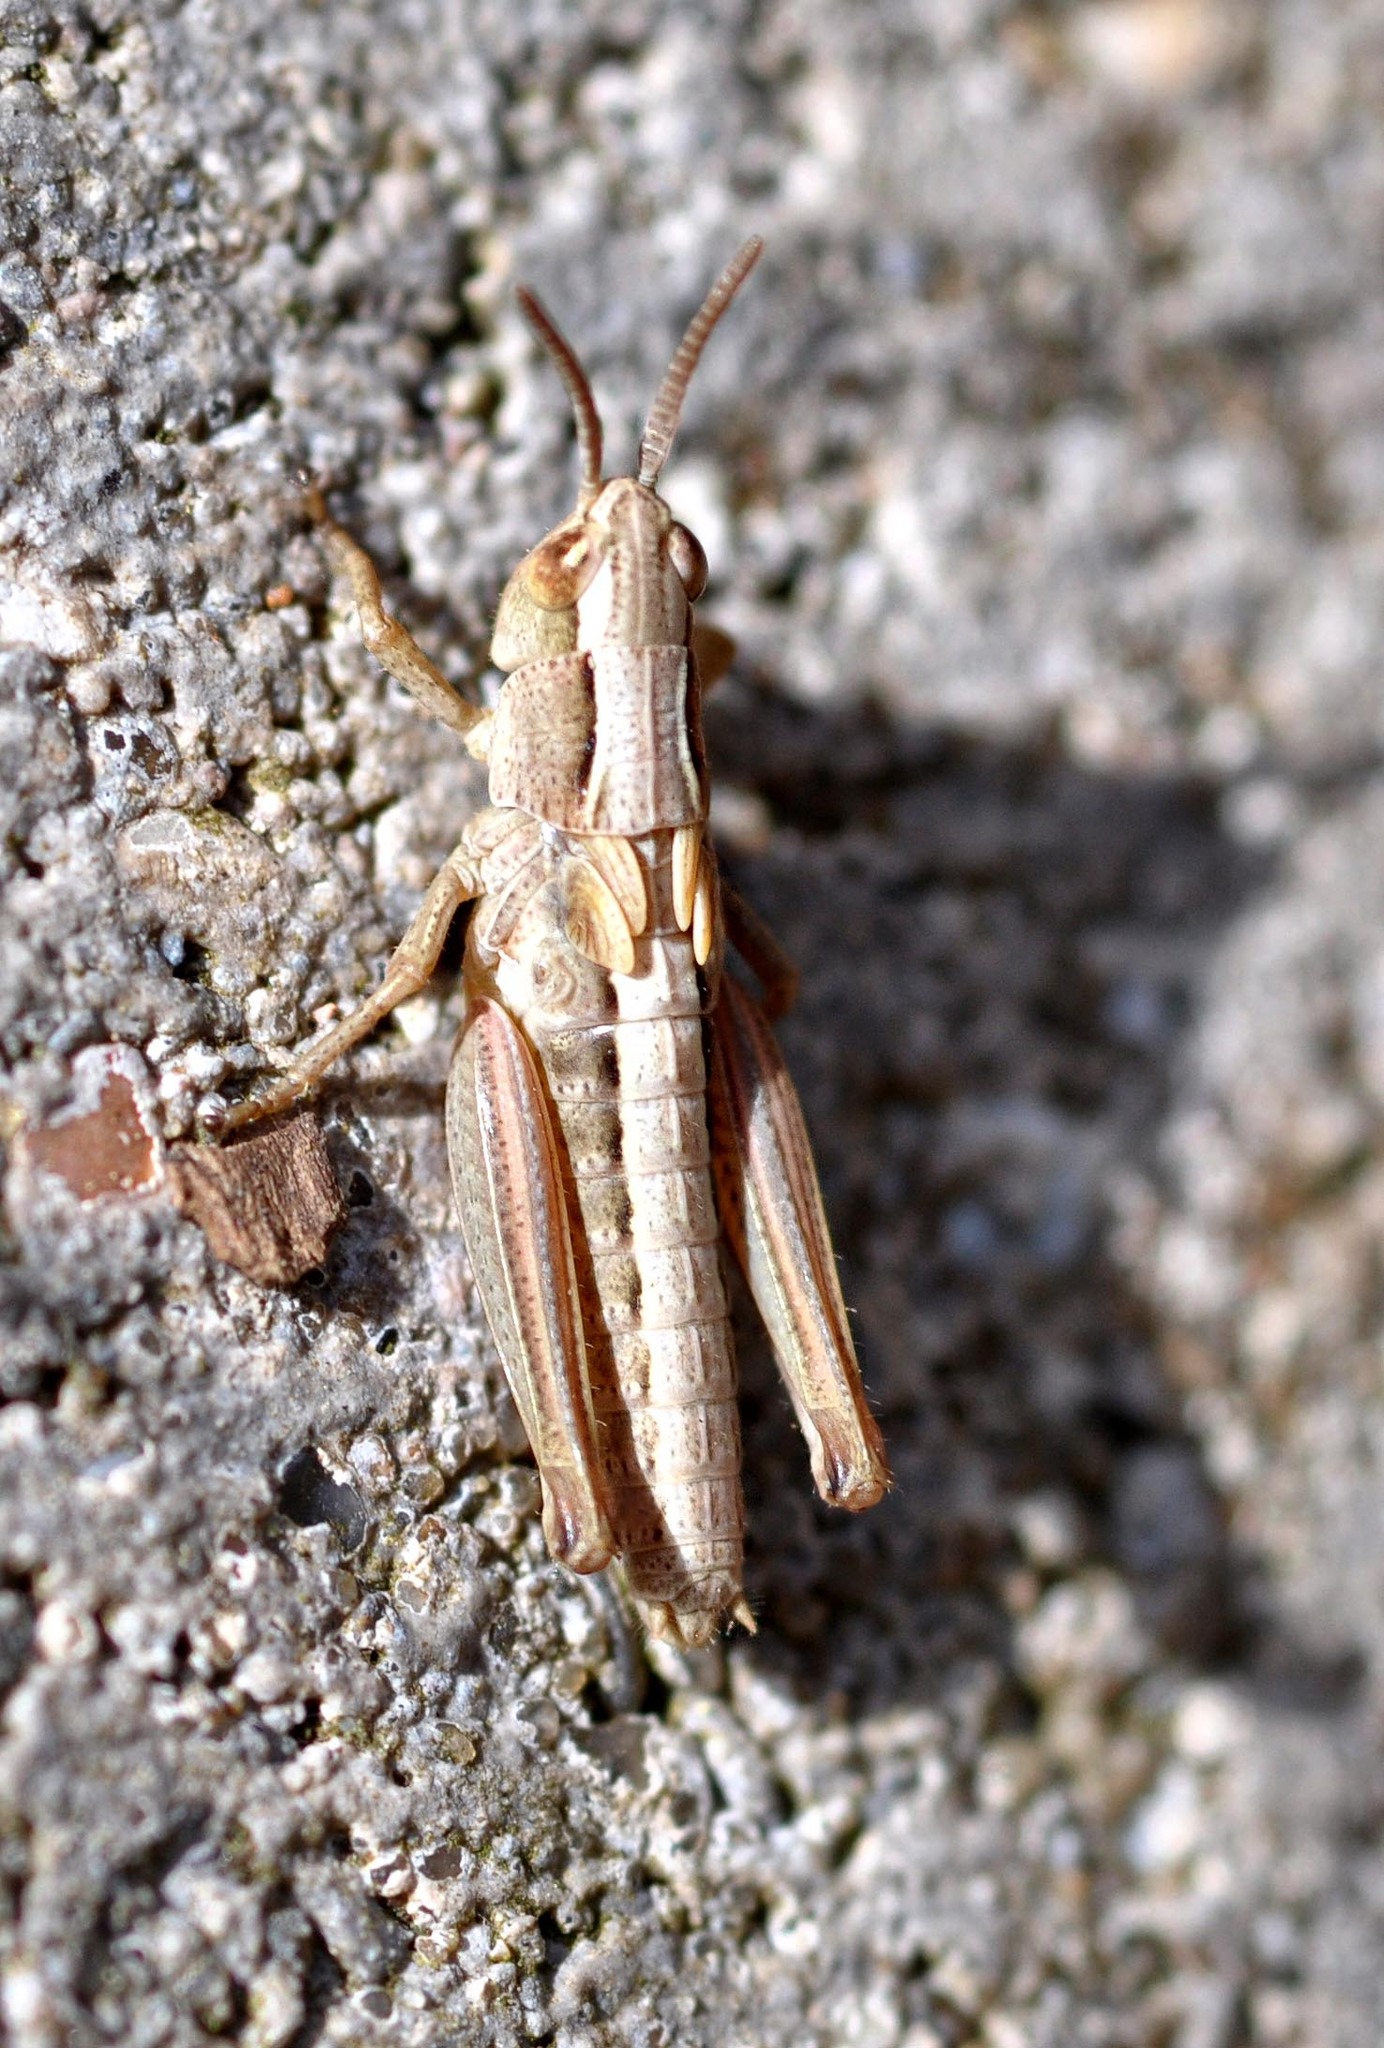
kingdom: Animalia
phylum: Arthropoda
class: Insecta
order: Orthoptera
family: Acrididae
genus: Pseudochorthippus
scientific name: Pseudochorthippus parallelus
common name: Meadow grasshopper
